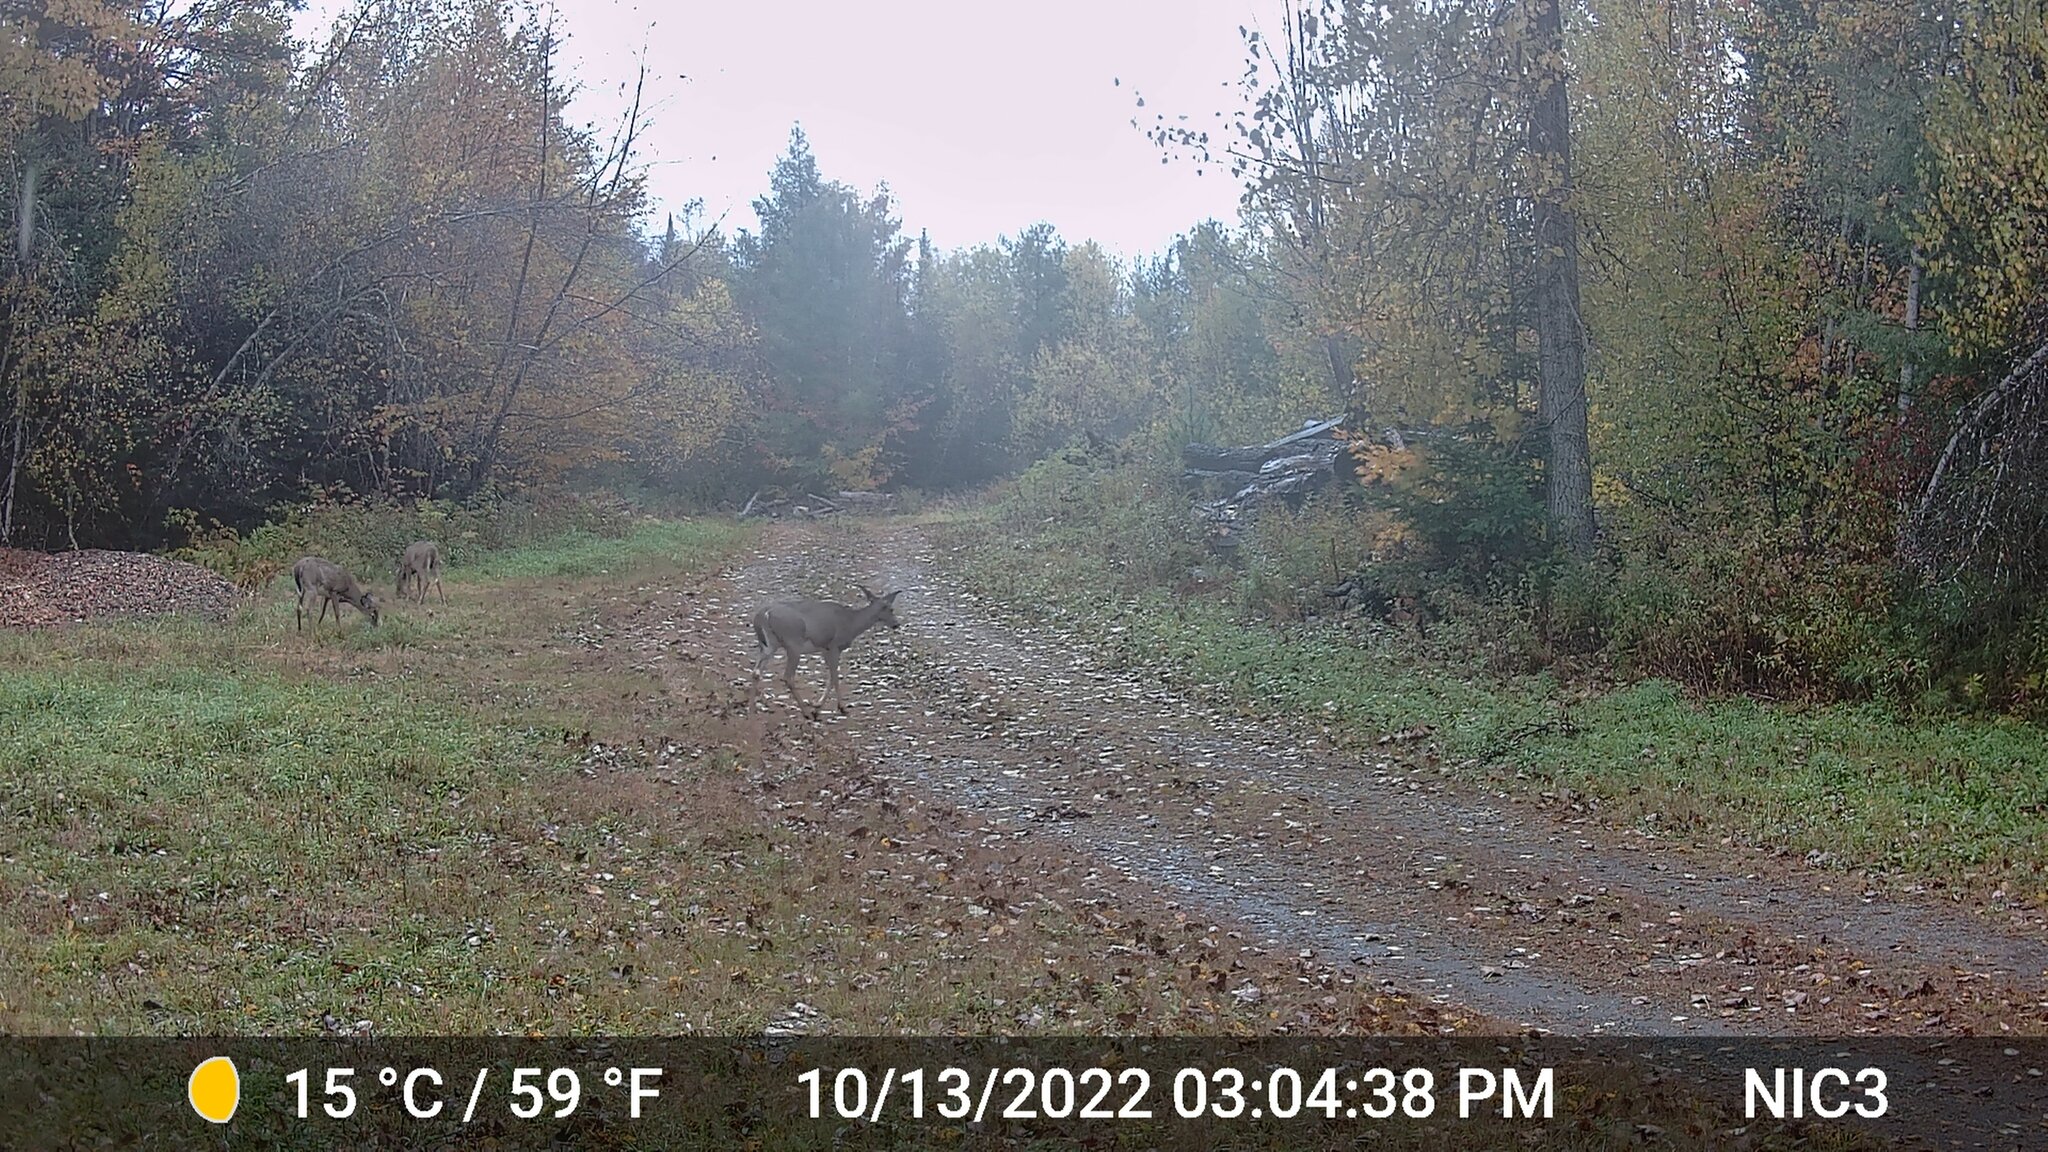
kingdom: Animalia
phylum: Chordata
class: Mammalia
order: Artiodactyla
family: Cervidae
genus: Odocoileus
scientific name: Odocoileus virginianus
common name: White-tailed deer
